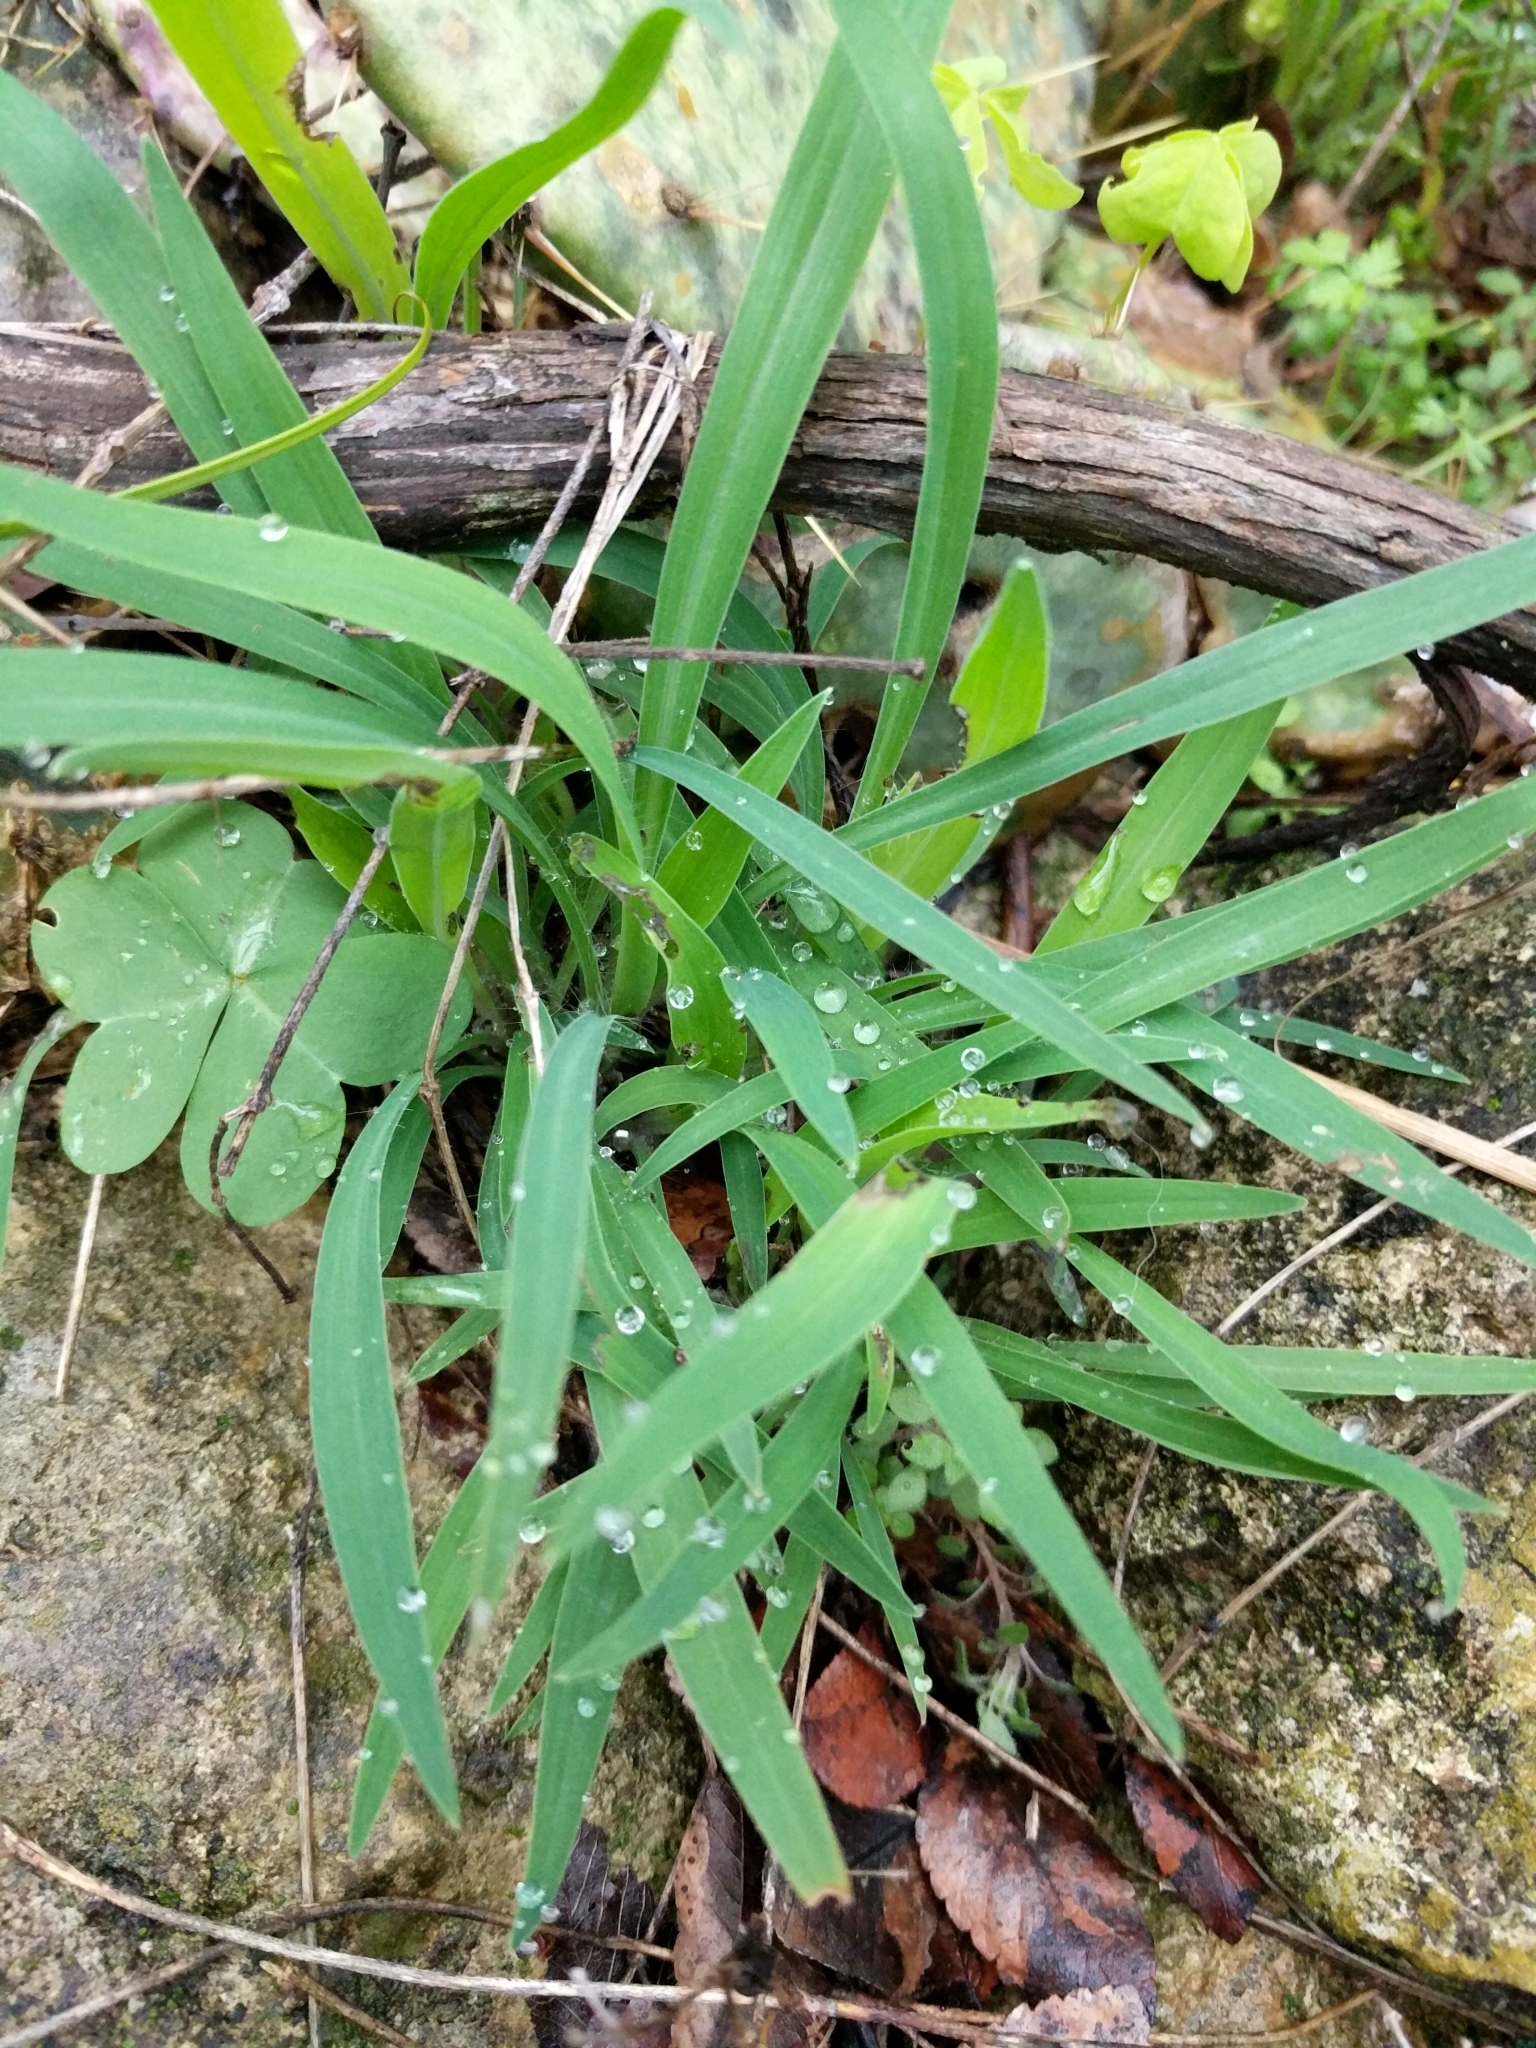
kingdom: Plantae
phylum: Tracheophyta
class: Liliopsida
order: Commelinales
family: Commelinaceae
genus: Tinantia
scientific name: Tinantia anomala
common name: False dayflower
